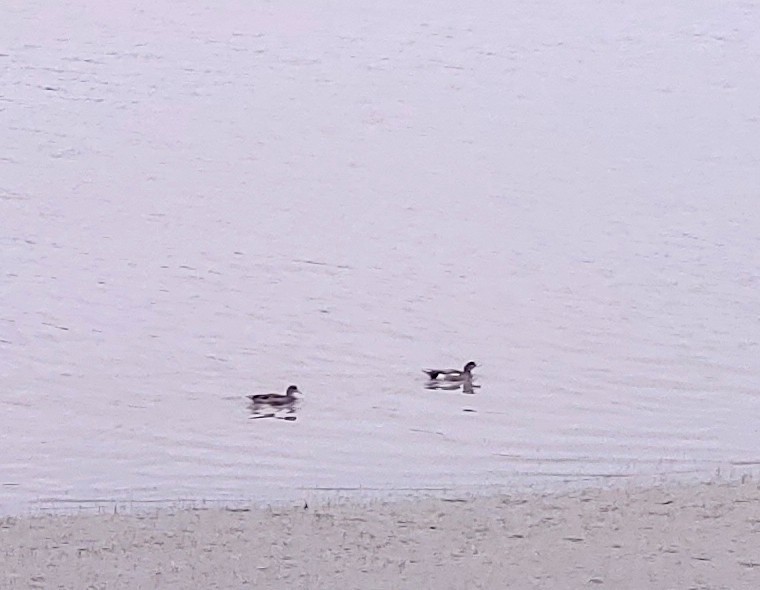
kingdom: Animalia
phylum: Chordata
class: Aves
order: Anseriformes
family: Anatidae
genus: Mareca
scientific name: Mareca americana
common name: American wigeon
